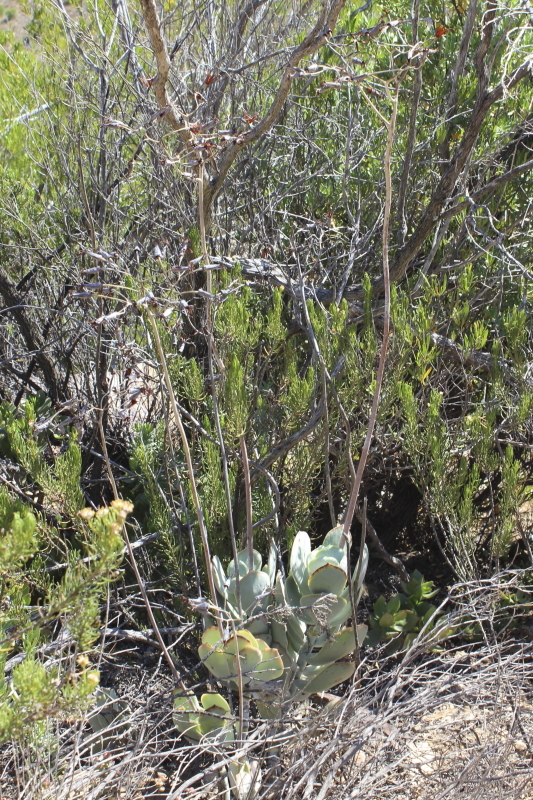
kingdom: Plantae
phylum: Tracheophyta
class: Magnoliopsida
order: Saxifragales
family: Crassulaceae
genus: Cotyledon
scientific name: Cotyledon orbiculata
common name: Pig's ear
